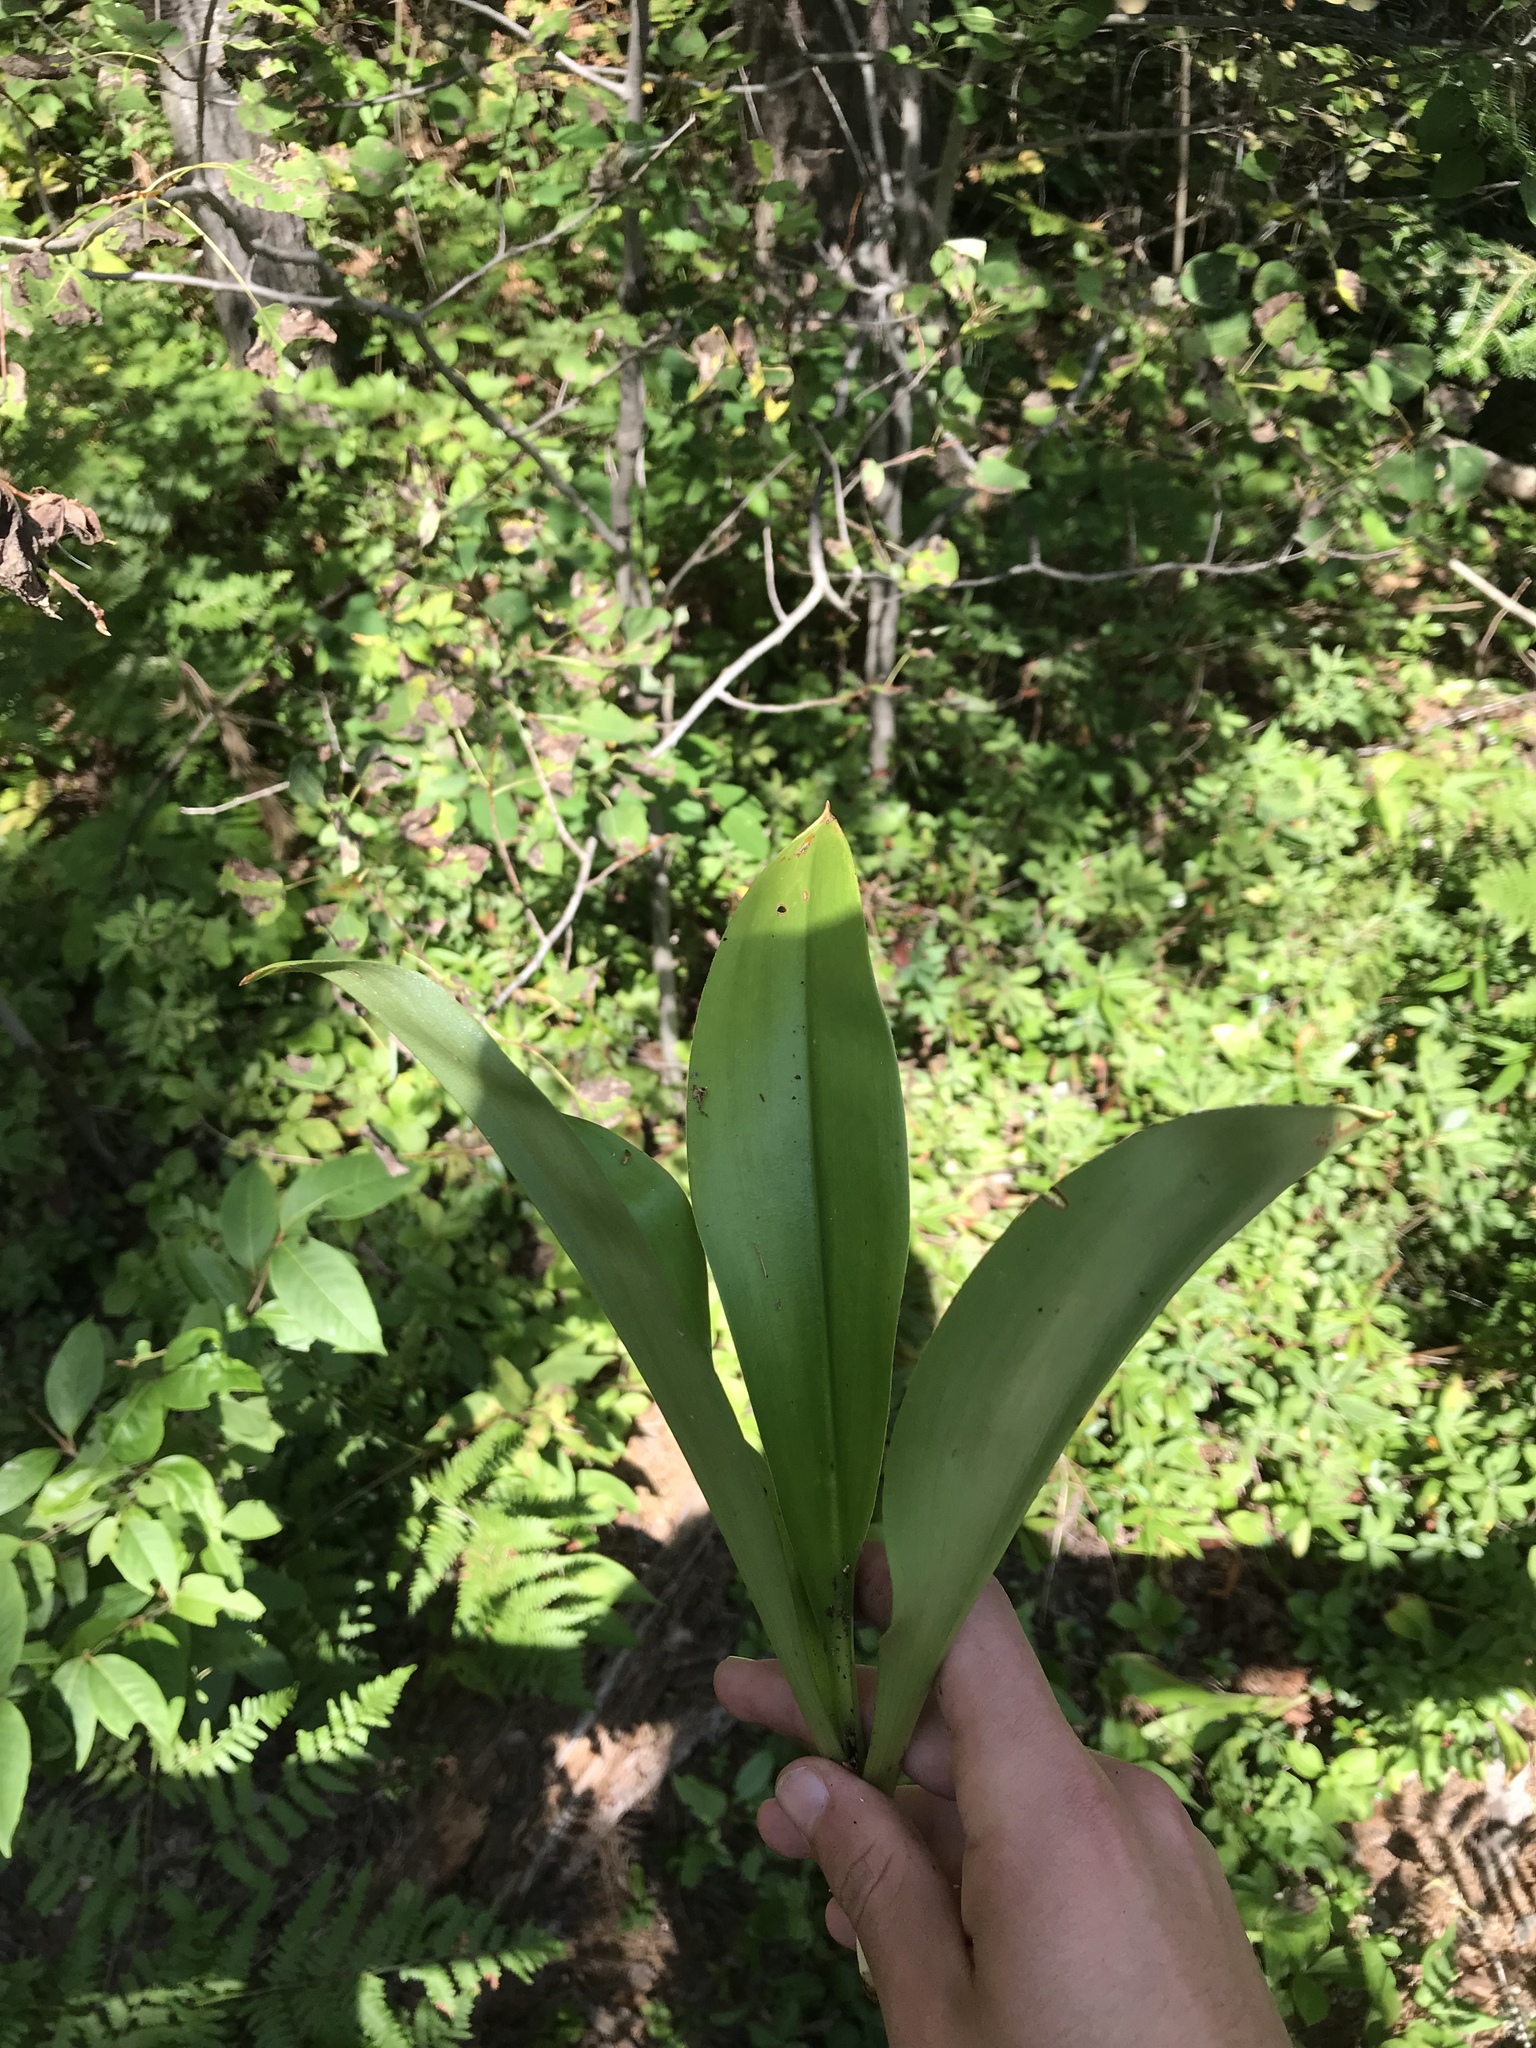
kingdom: Plantae
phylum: Tracheophyta
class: Liliopsida
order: Liliales
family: Liliaceae
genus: Clintonia
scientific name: Clintonia borealis
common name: Yellow clintonia
